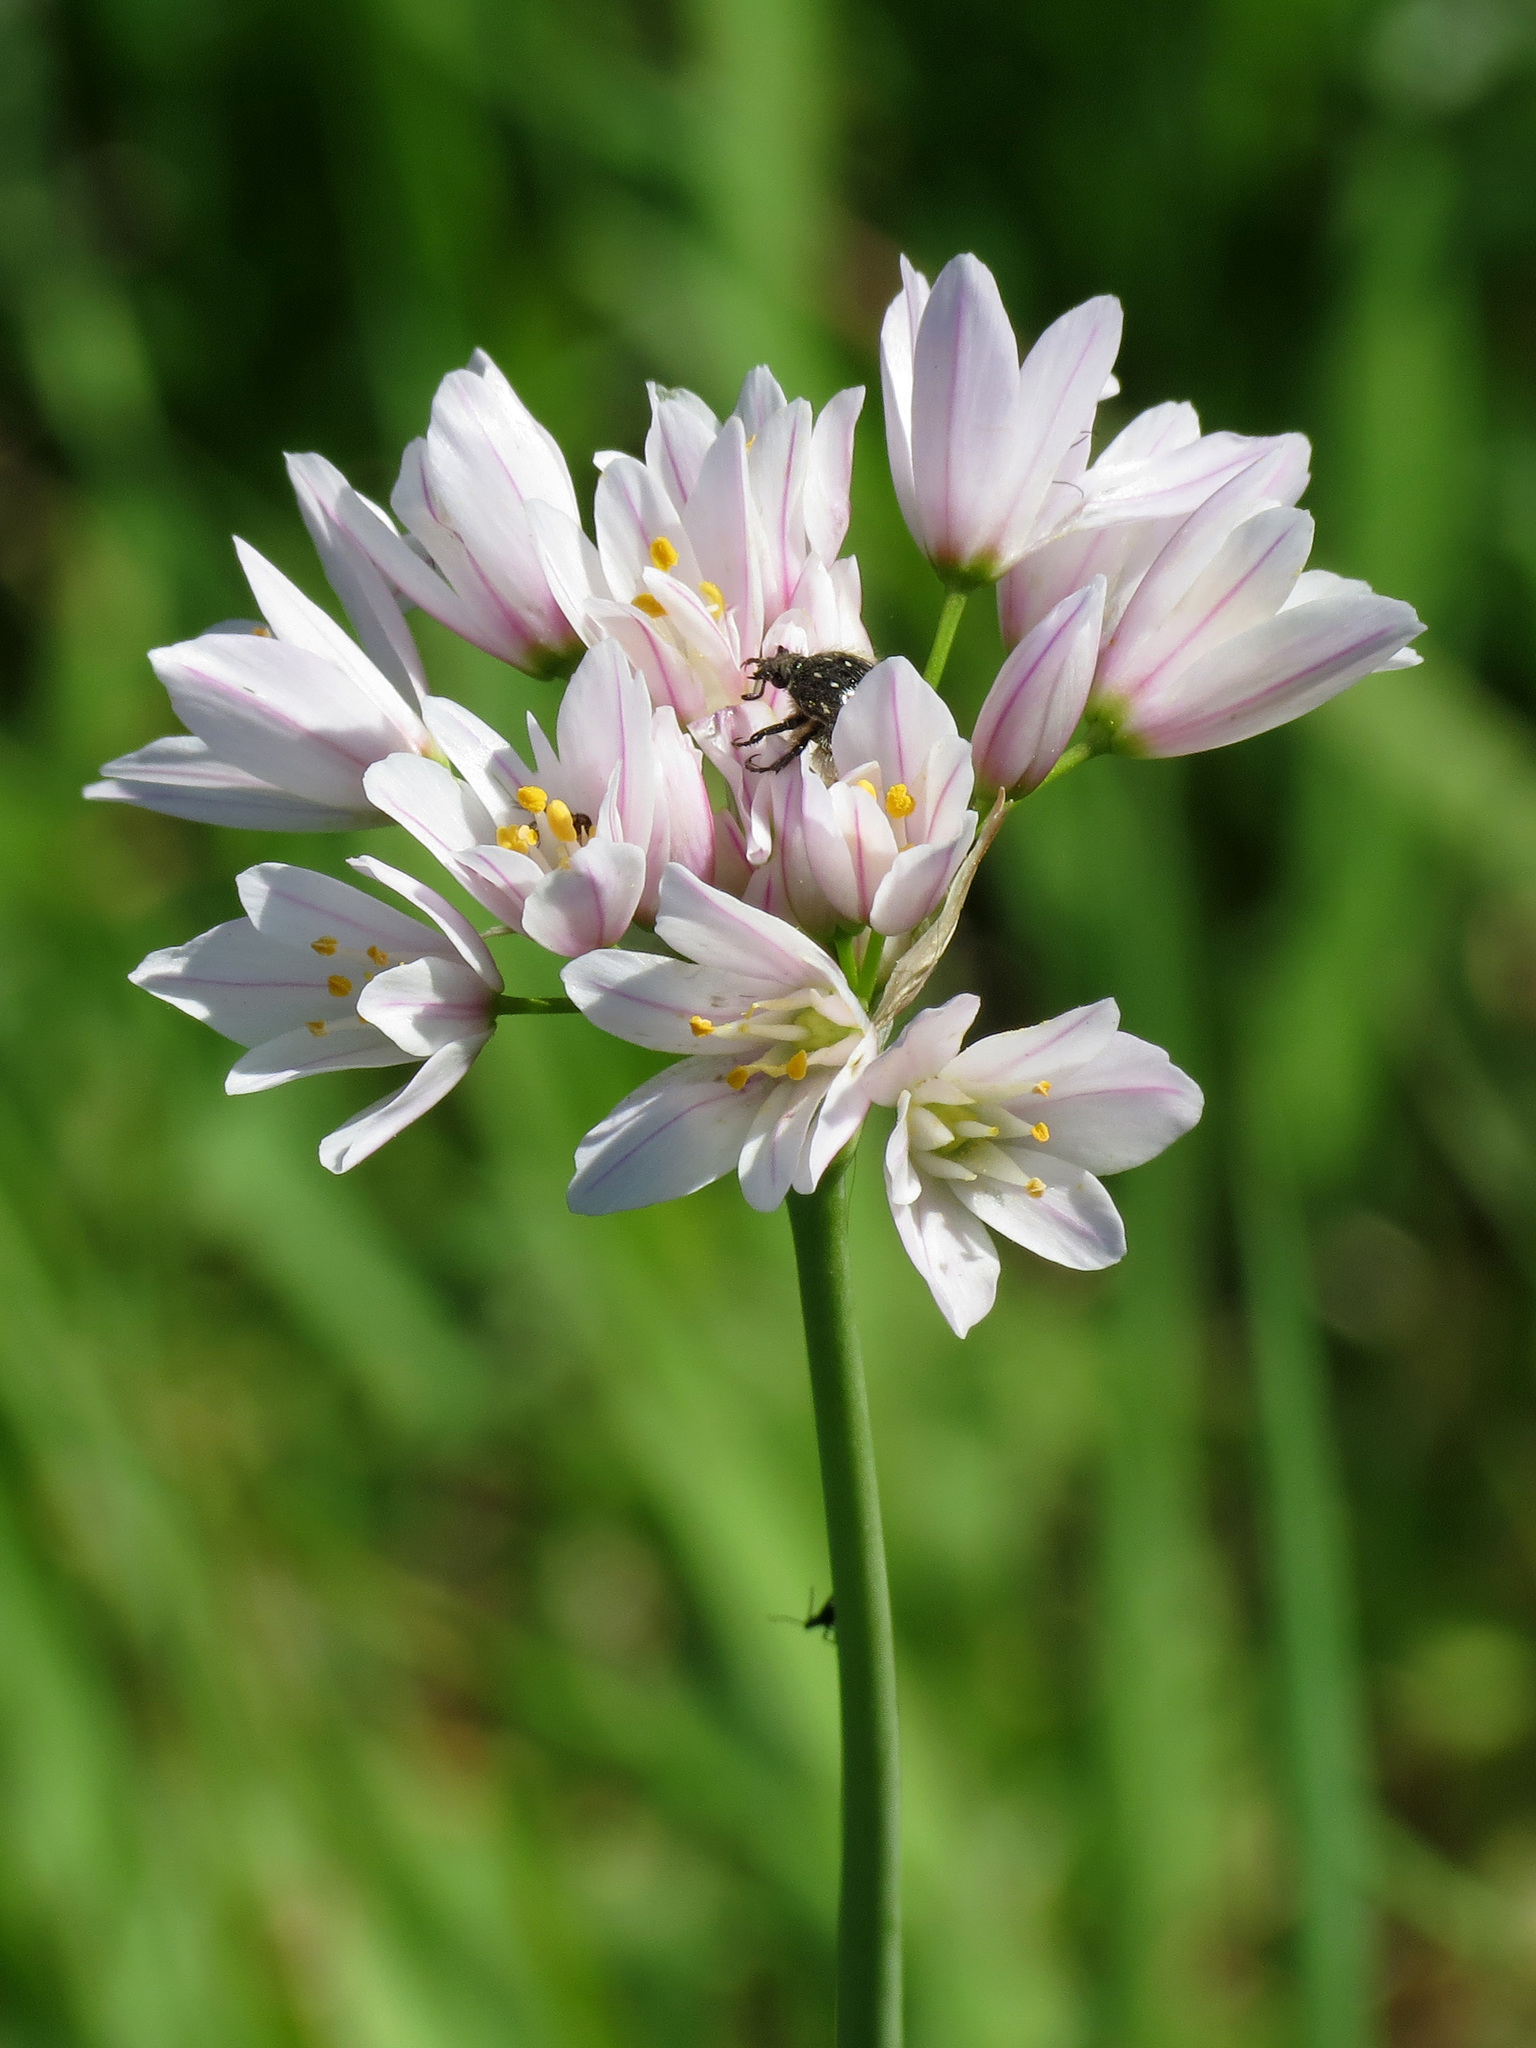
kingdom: Plantae
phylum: Tracheophyta
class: Liliopsida
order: Asparagales
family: Amaryllidaceae
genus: Allium
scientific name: Allium roseum
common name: Rosy garlic
